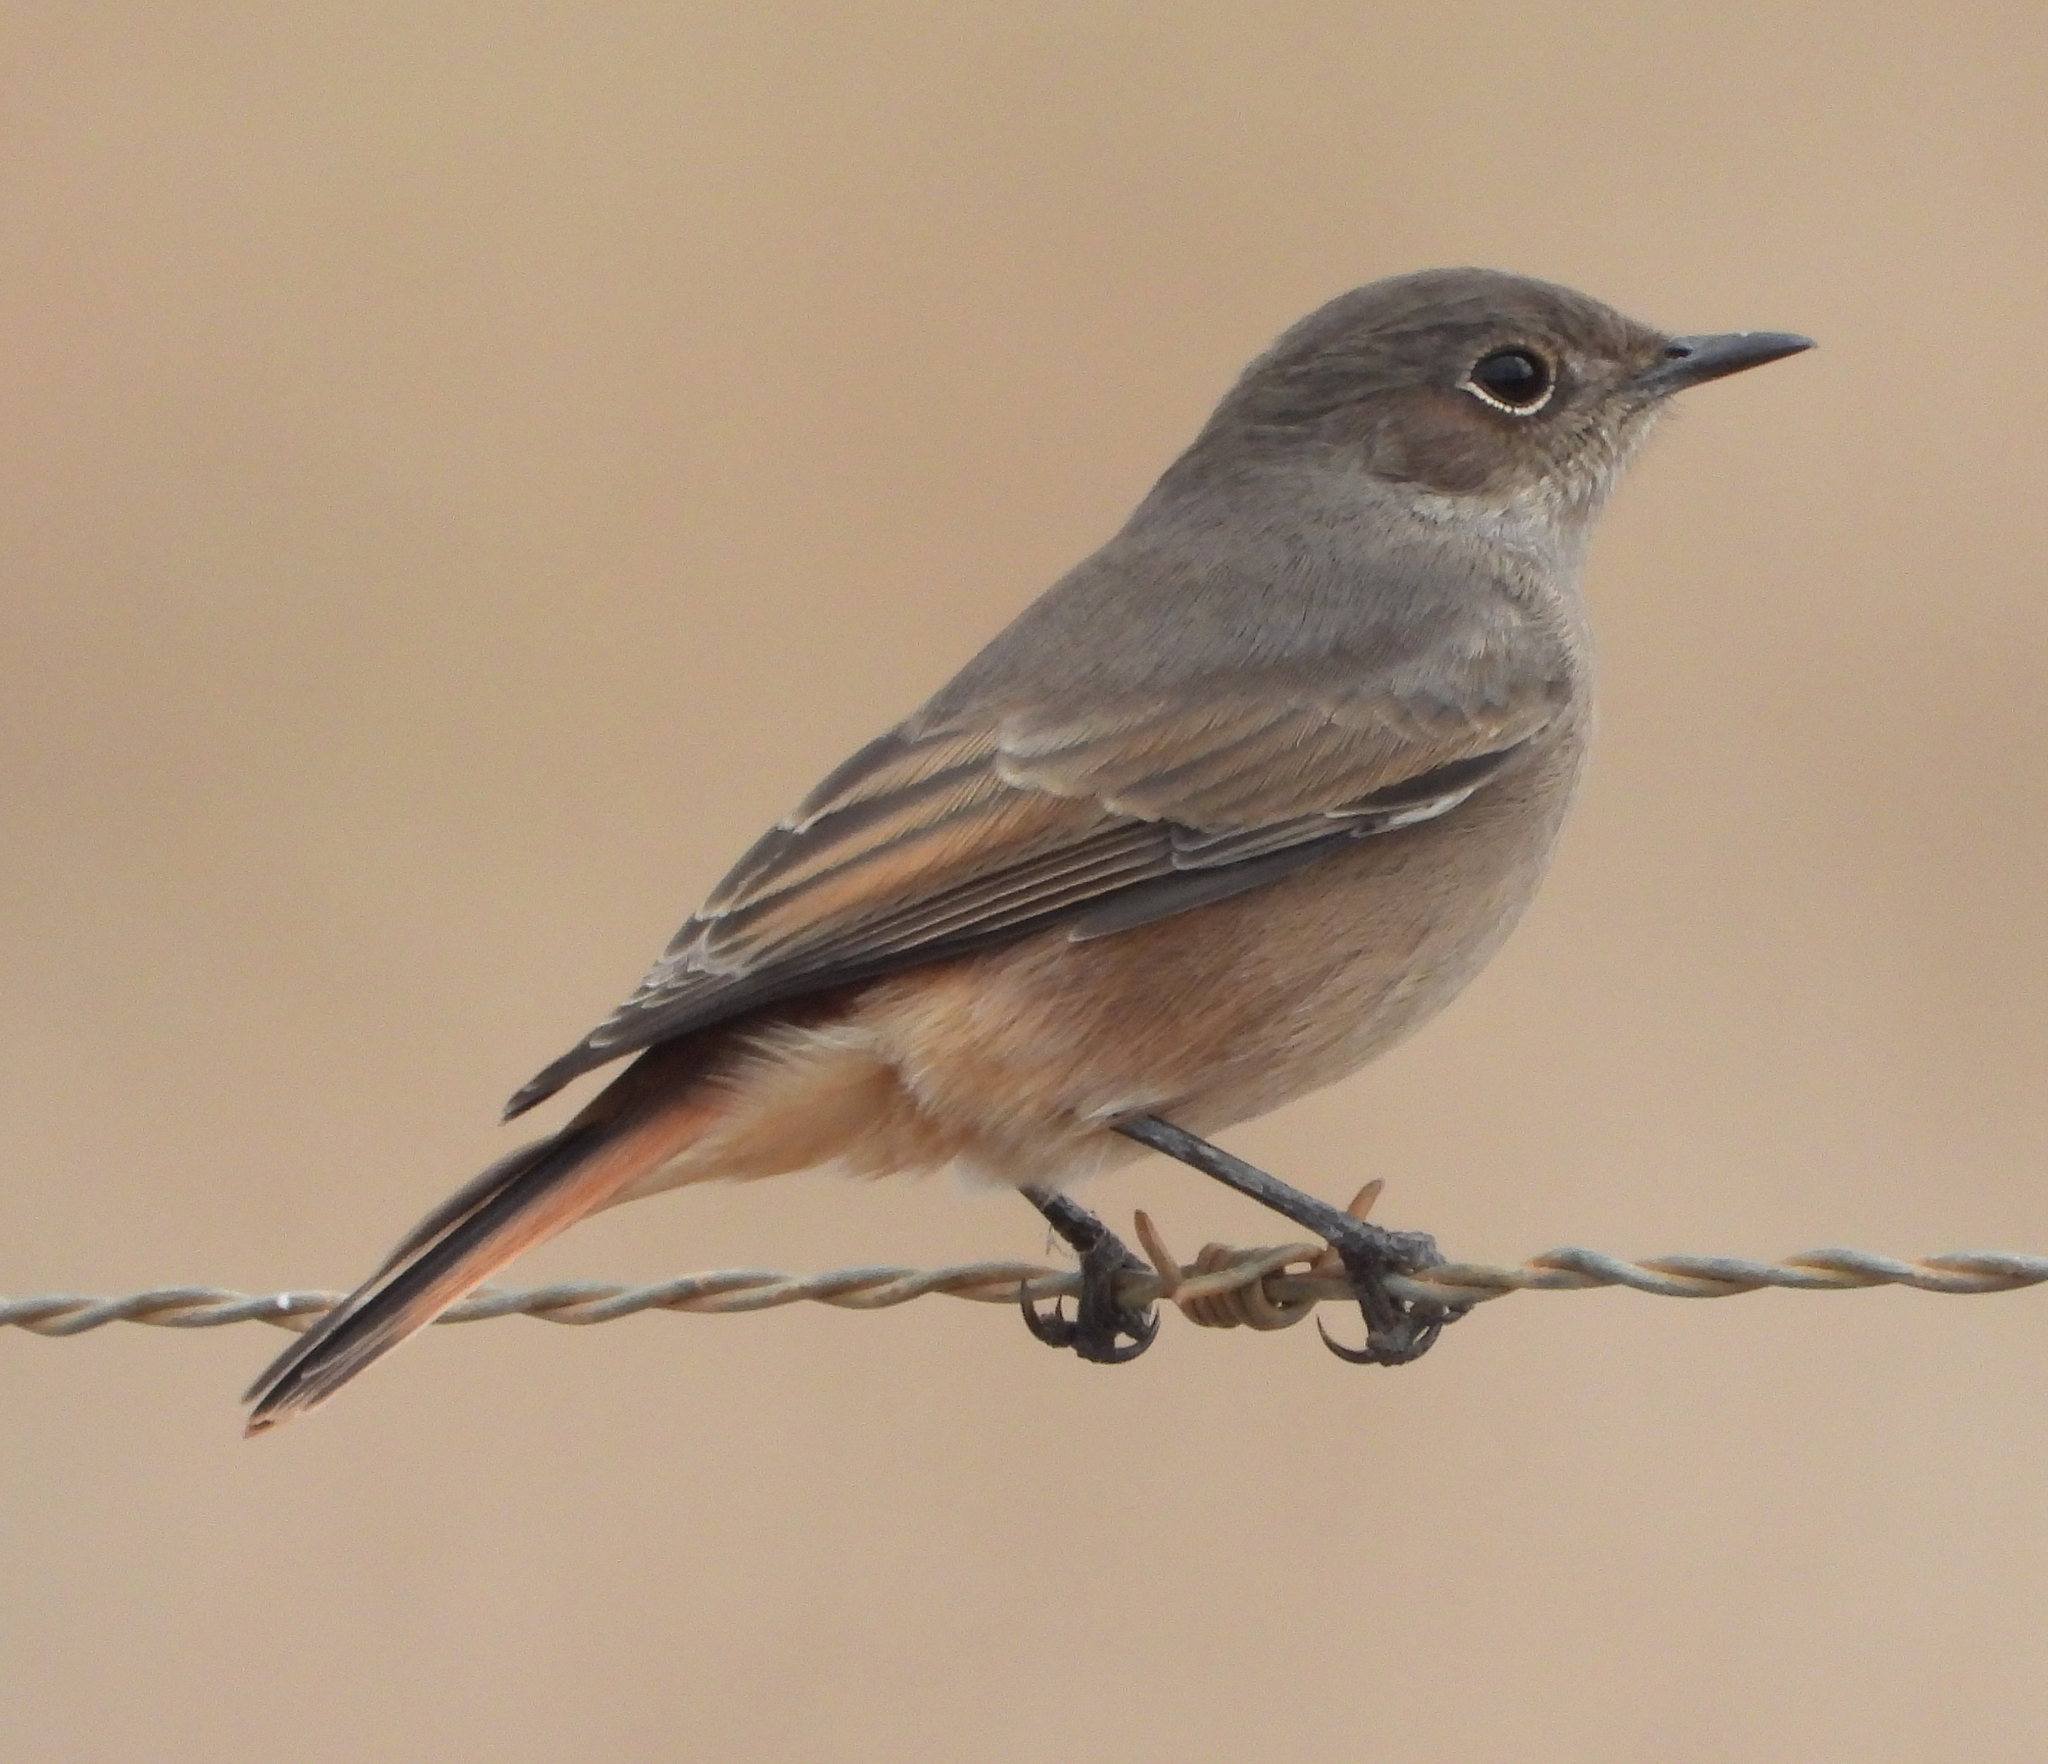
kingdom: Animalia
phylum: Chordata
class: Aves
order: Passeriformes
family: Muscicapidae
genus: Oenanthe
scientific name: Oenanthe familiaris
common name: Familiar chat
